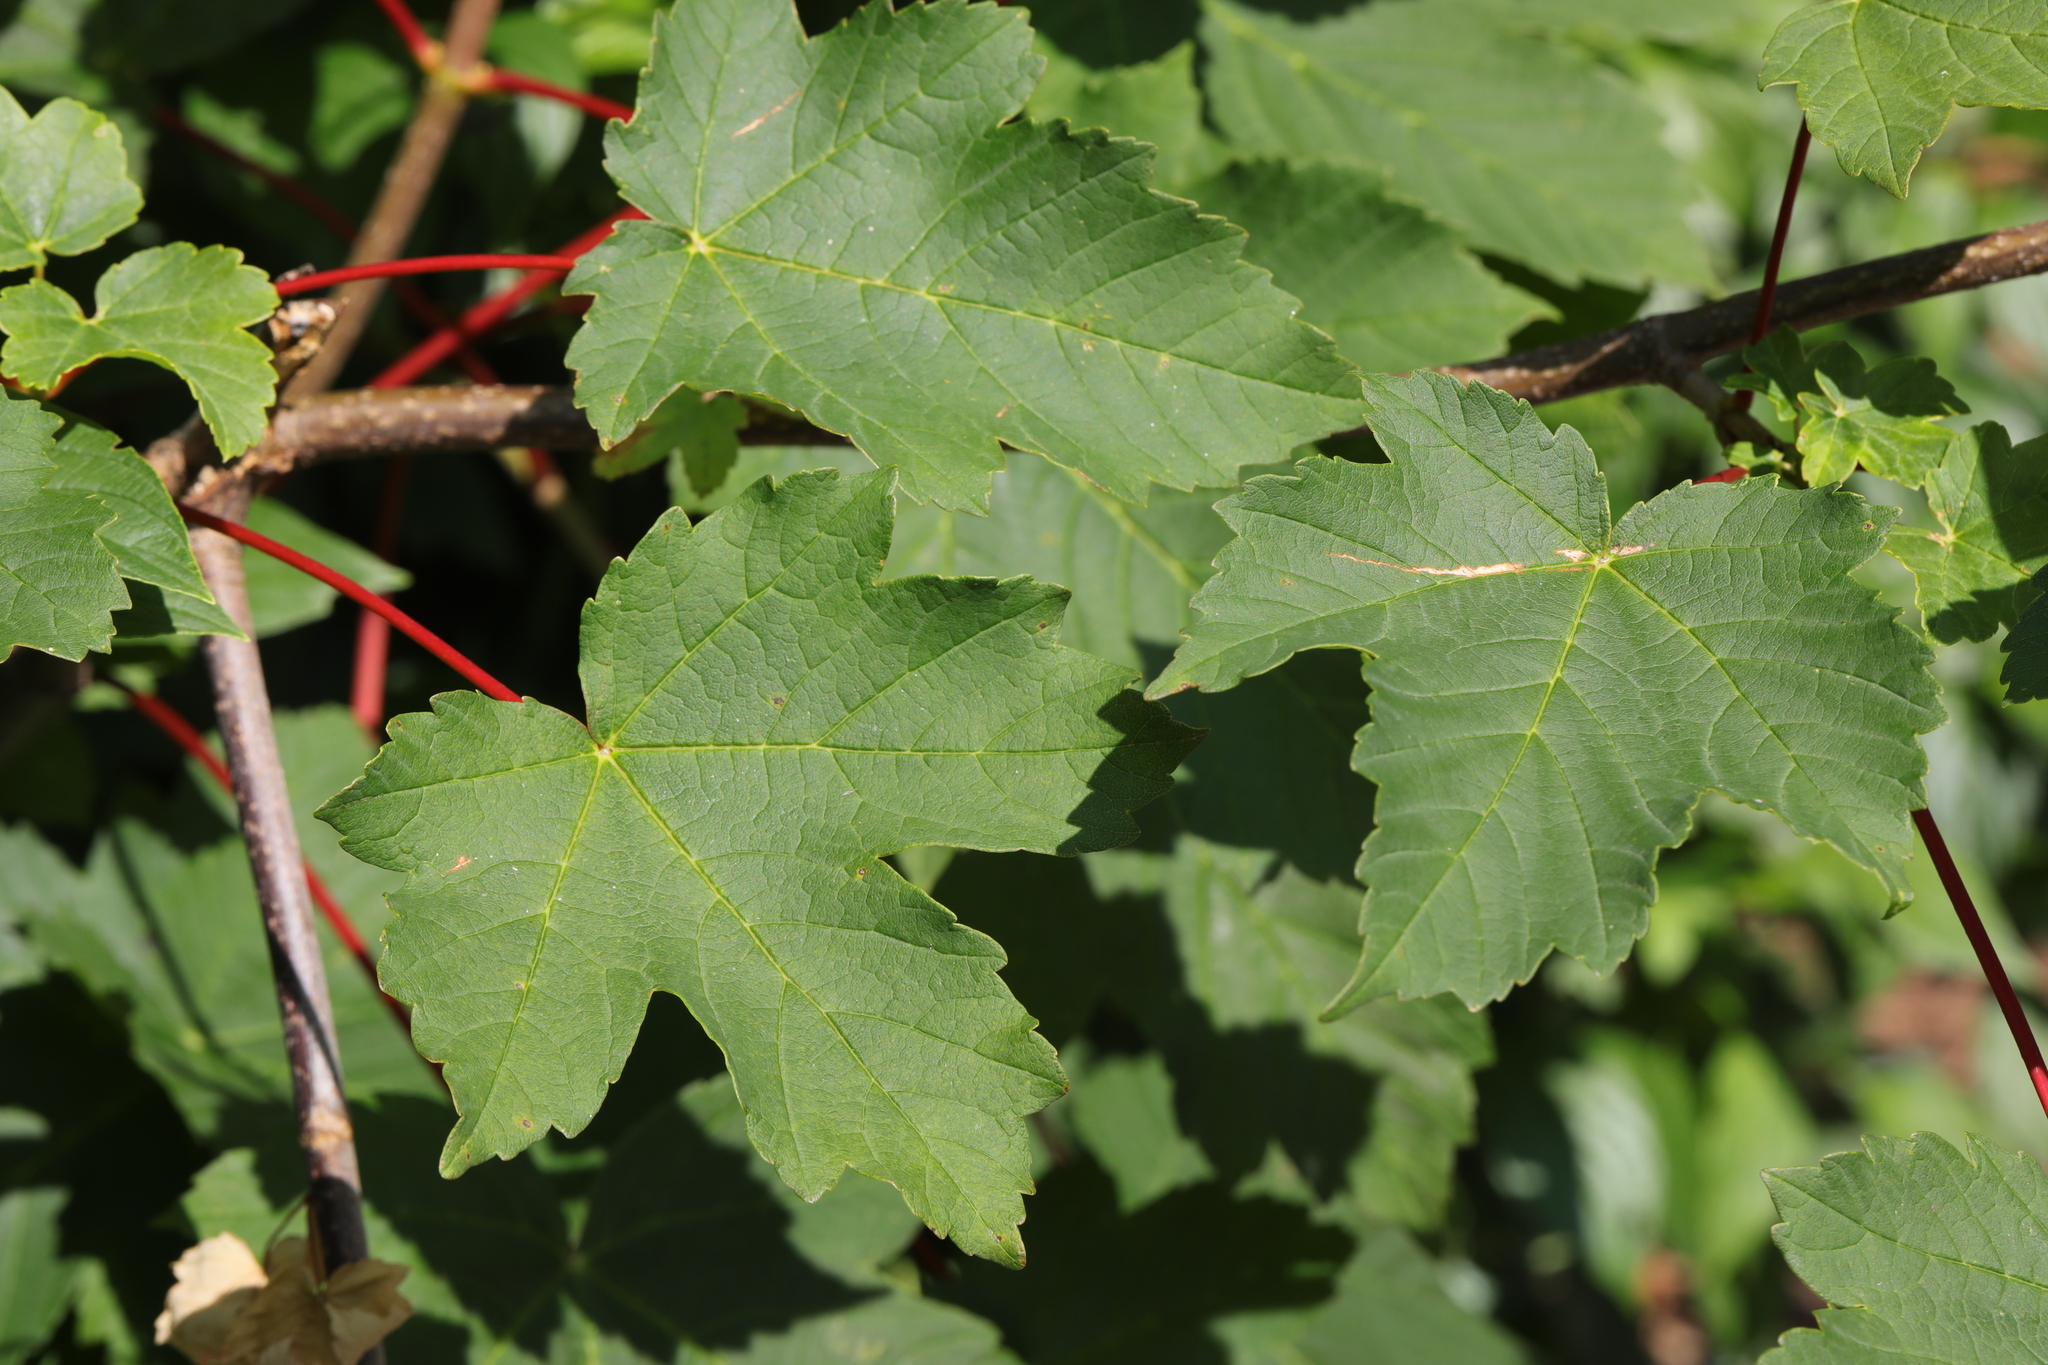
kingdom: Plantae
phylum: Tracheophyta
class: Magnoliopsida
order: Sapindales
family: Sapindaceae
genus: Acer
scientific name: Acer pseudoplatanus
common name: Sycamore
